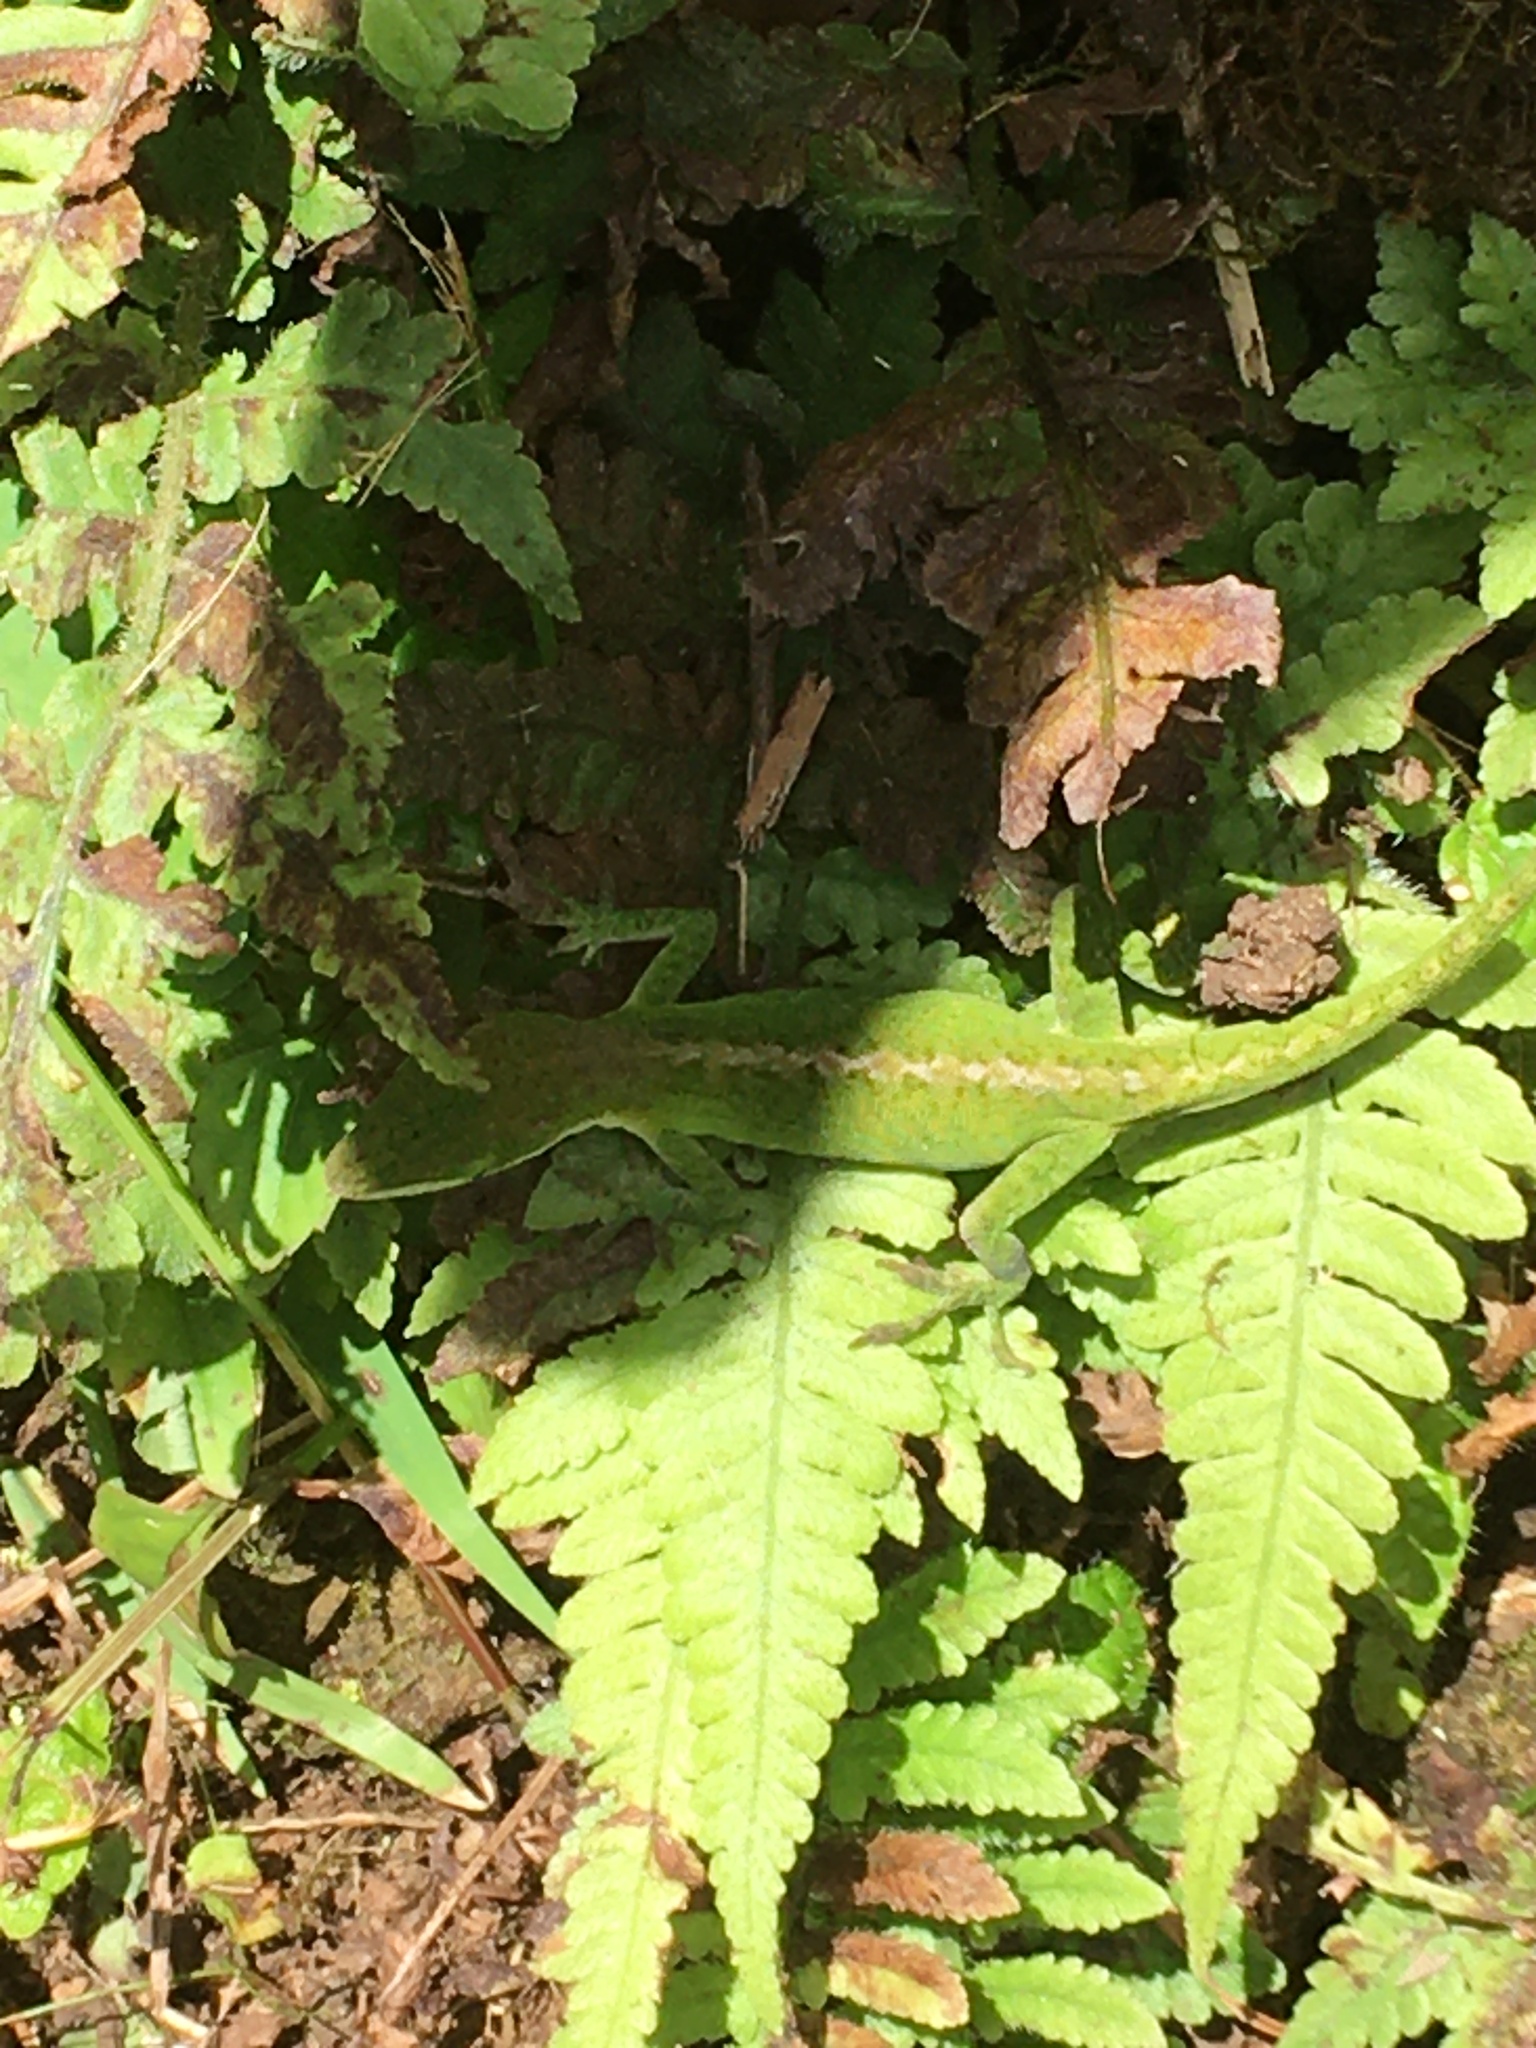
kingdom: Animalia
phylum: Chordata
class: Squamata
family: Dactyloidae
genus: Anolis
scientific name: Anolis carolinensis
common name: Green anole
